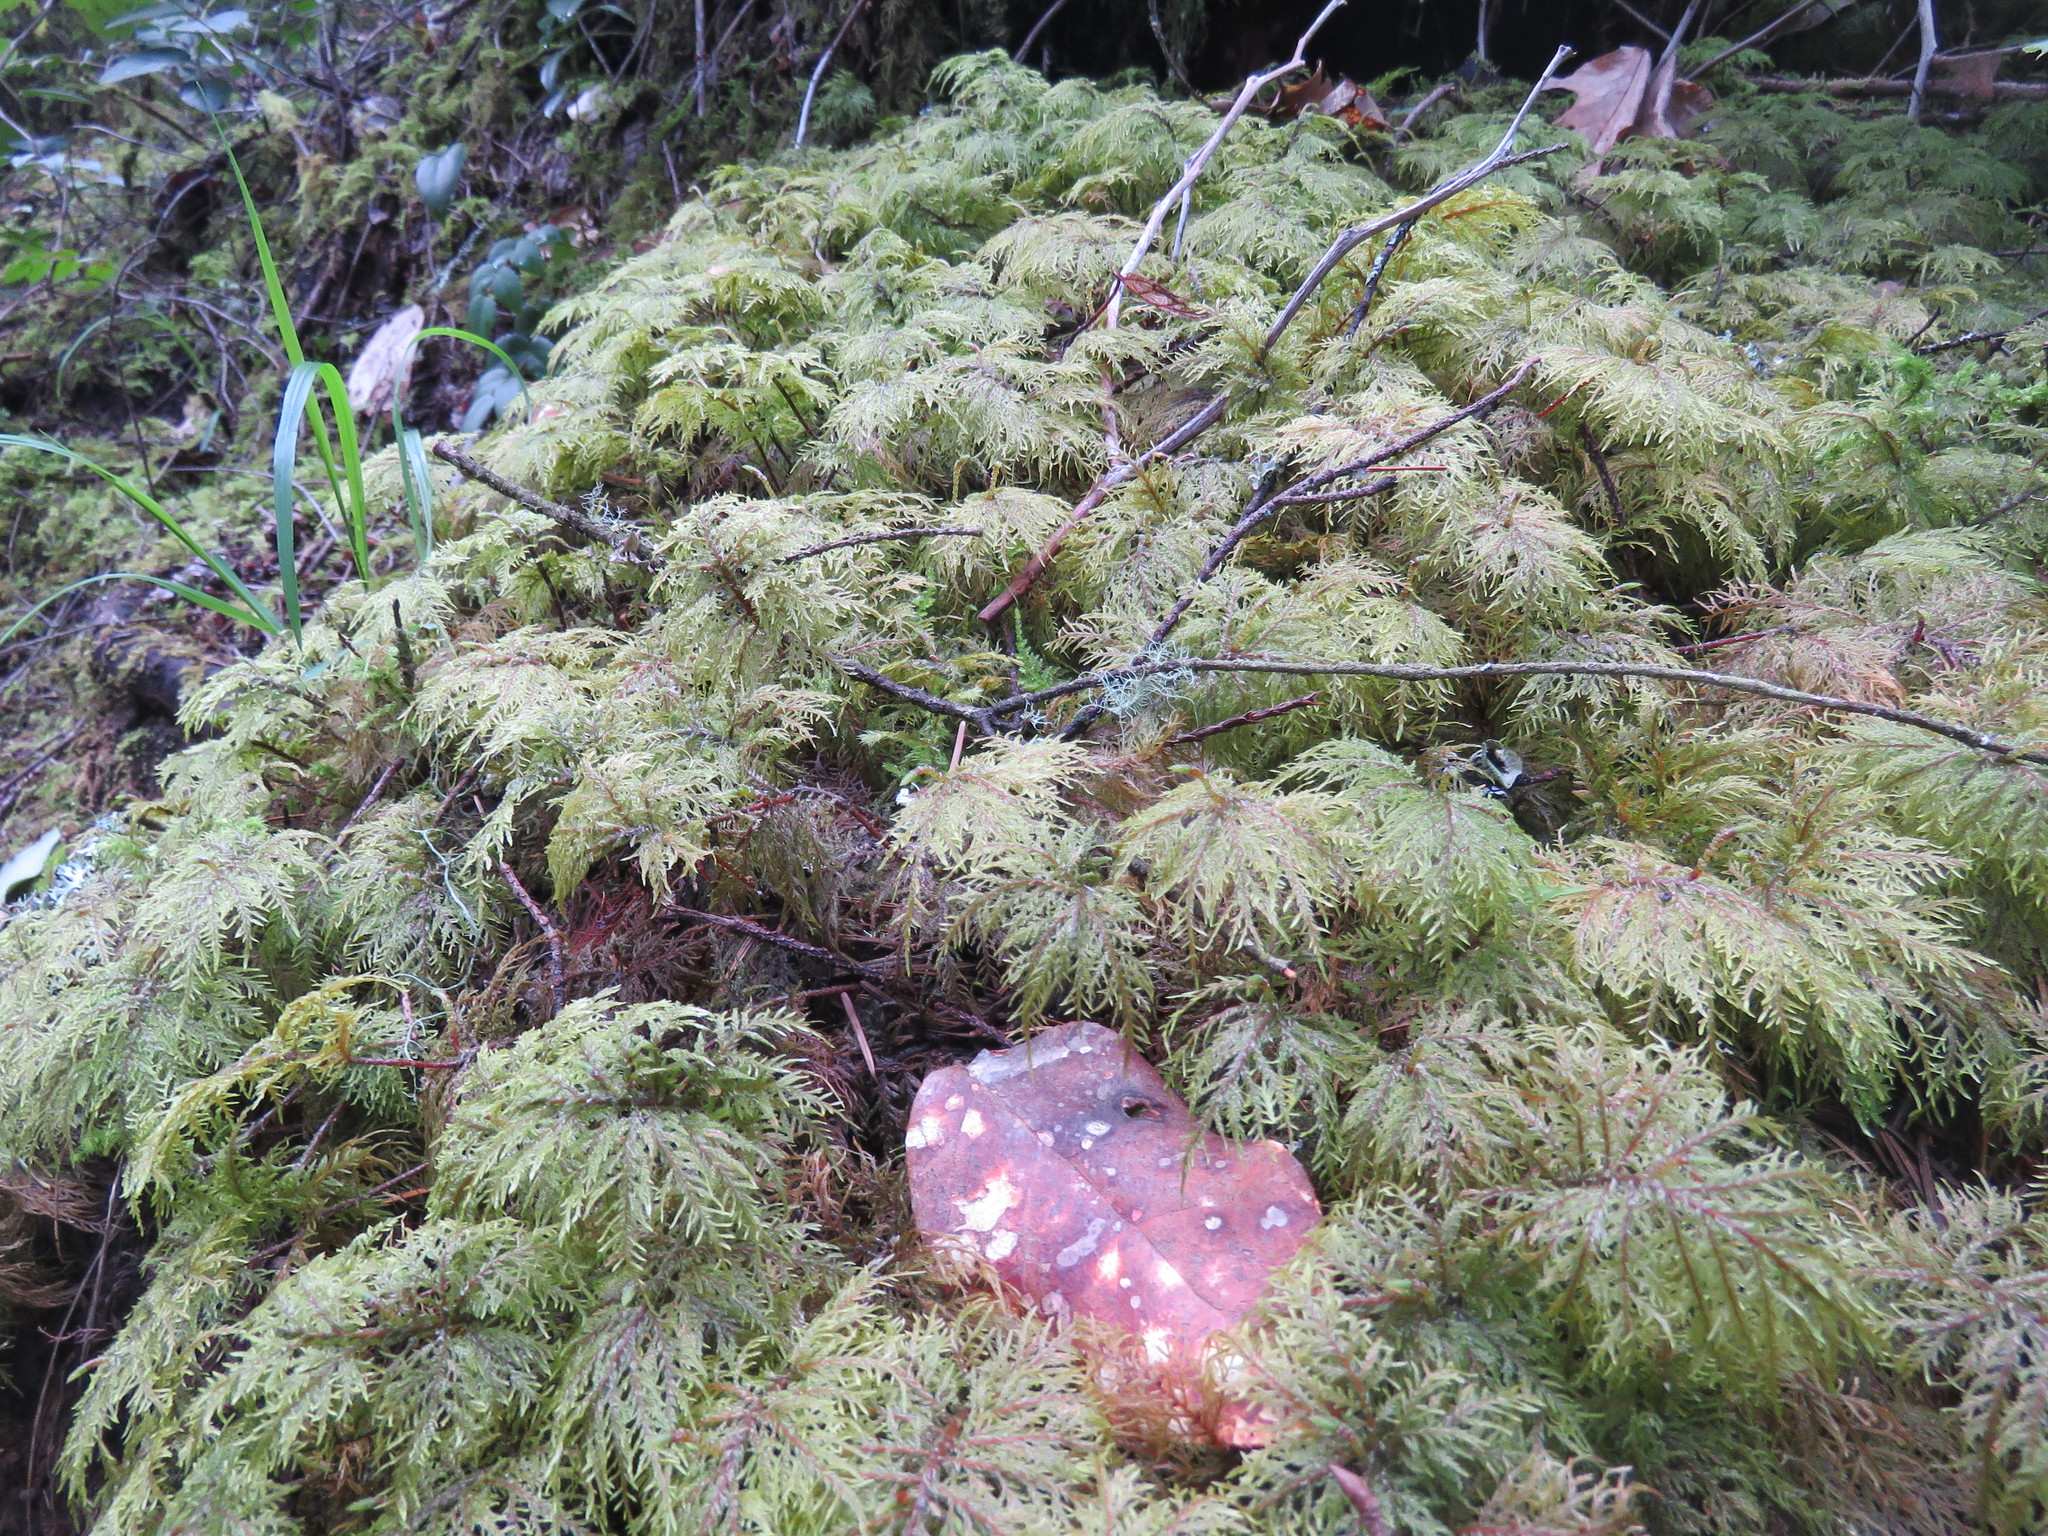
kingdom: Plantae
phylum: Bryophyta
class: Bryopsida
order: Hypnales
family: Hylocomiaceae
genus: Hylocomium
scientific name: Hylocomium splendens
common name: Stairstep moss
